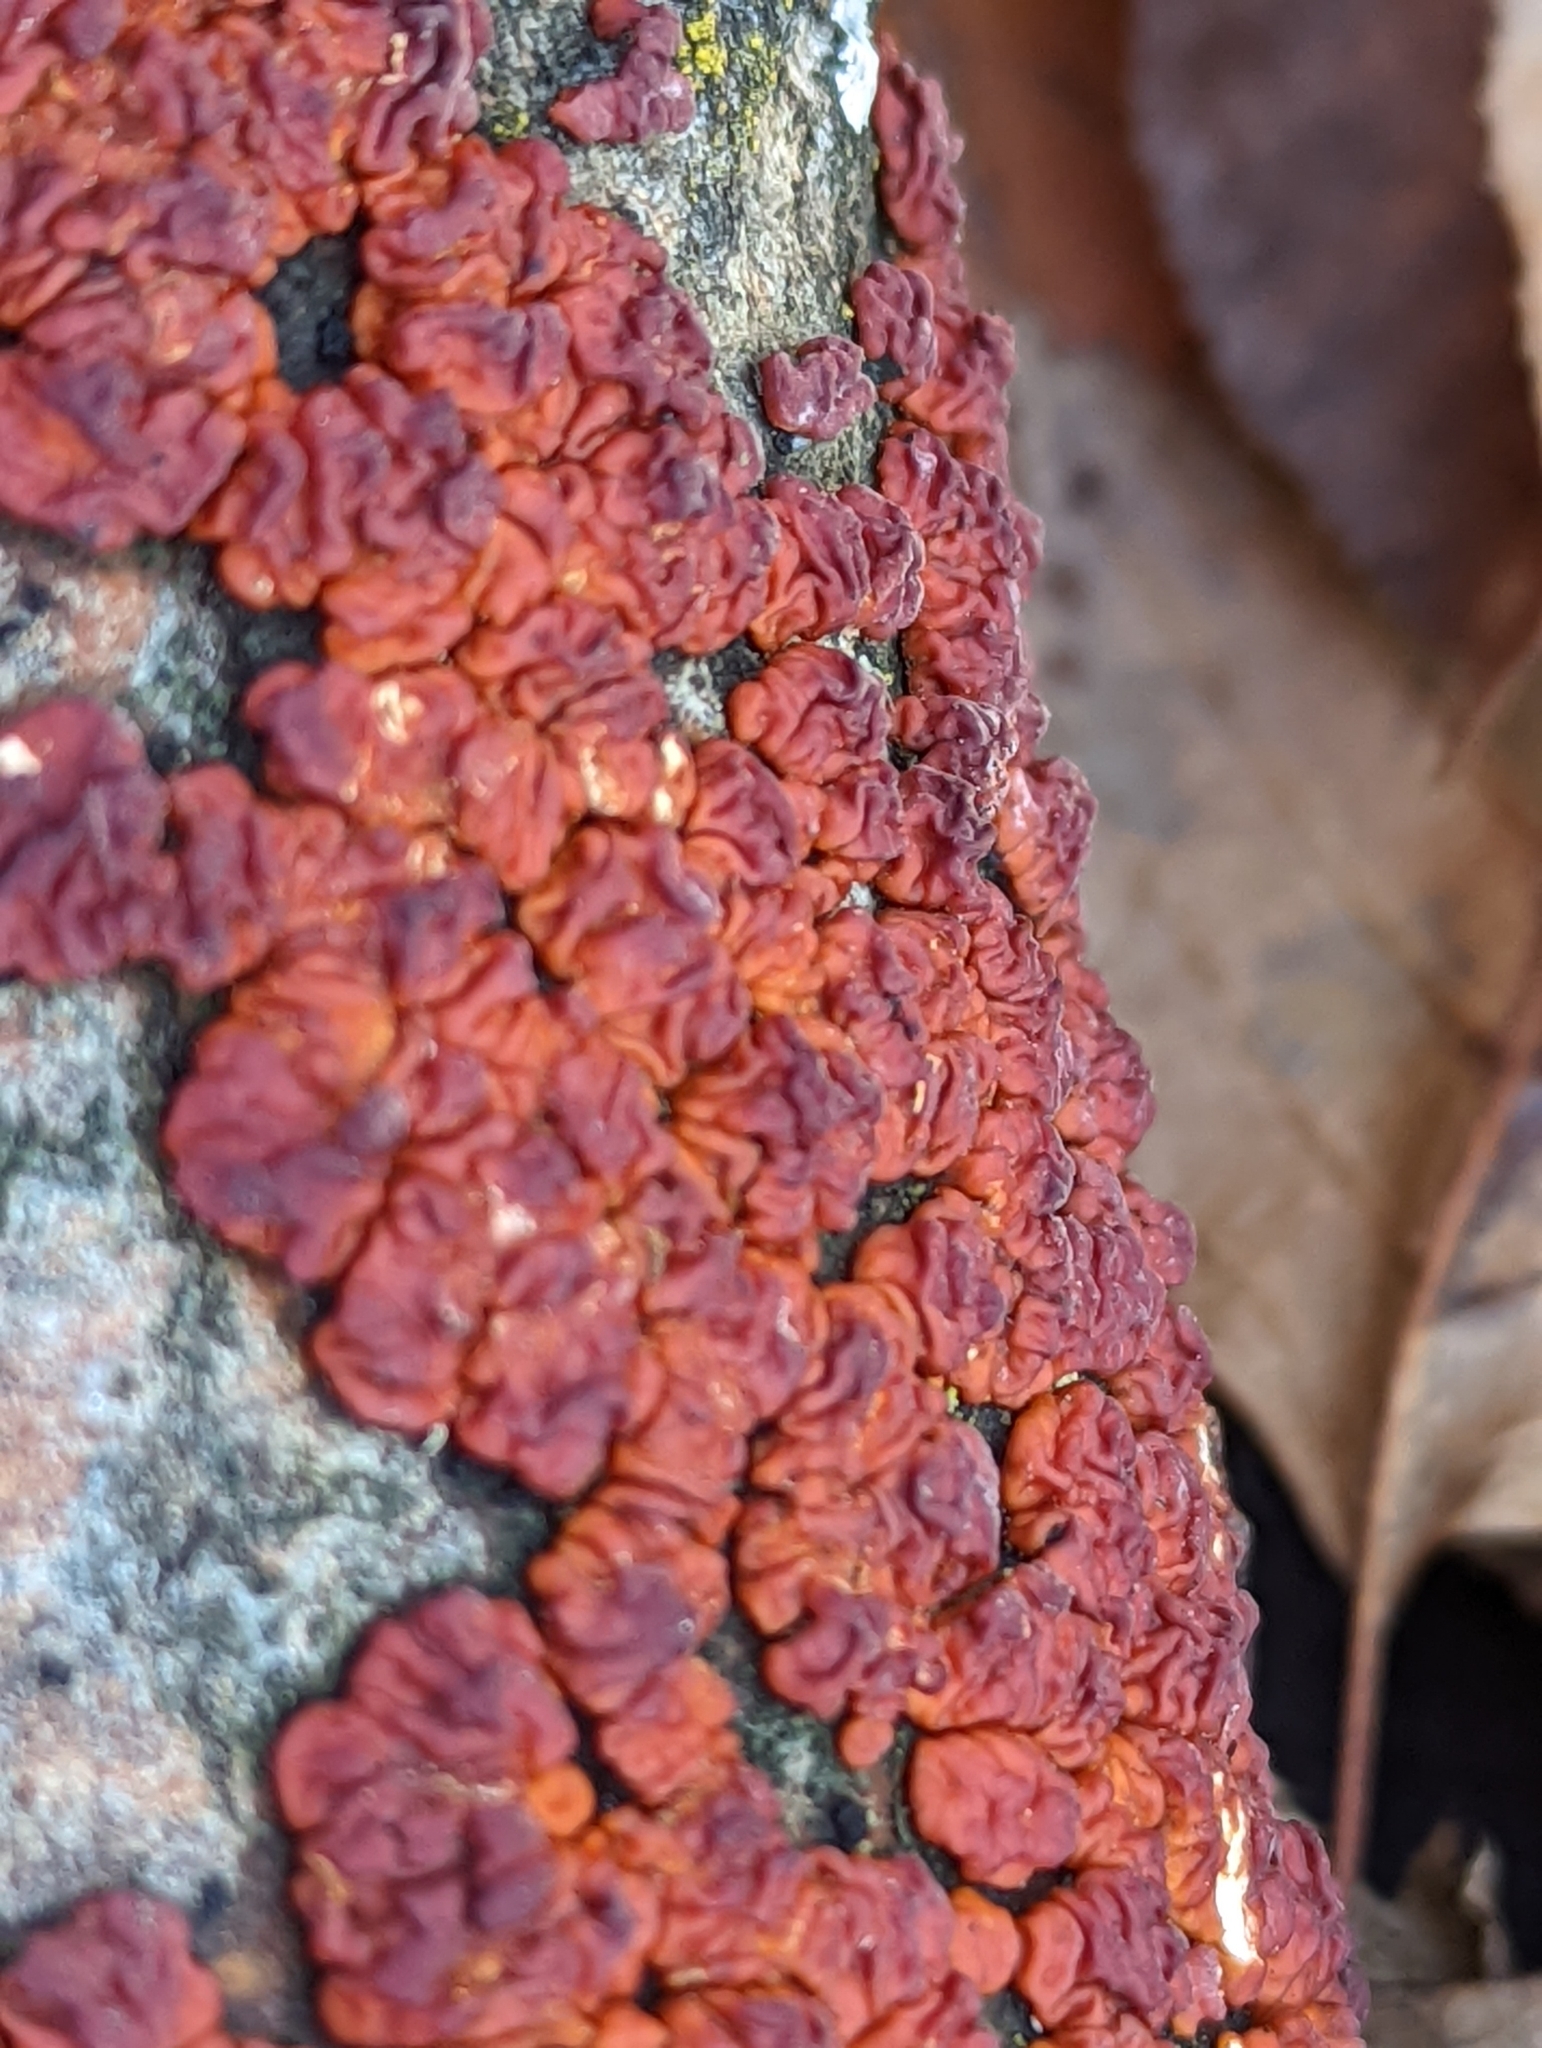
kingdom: Fungi
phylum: Basidiomycota
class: Agaricomycetes
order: Russulales
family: Peniophoraceae
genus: Peniophora
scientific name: Peniophora rufa
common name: Red tree brain fungus
